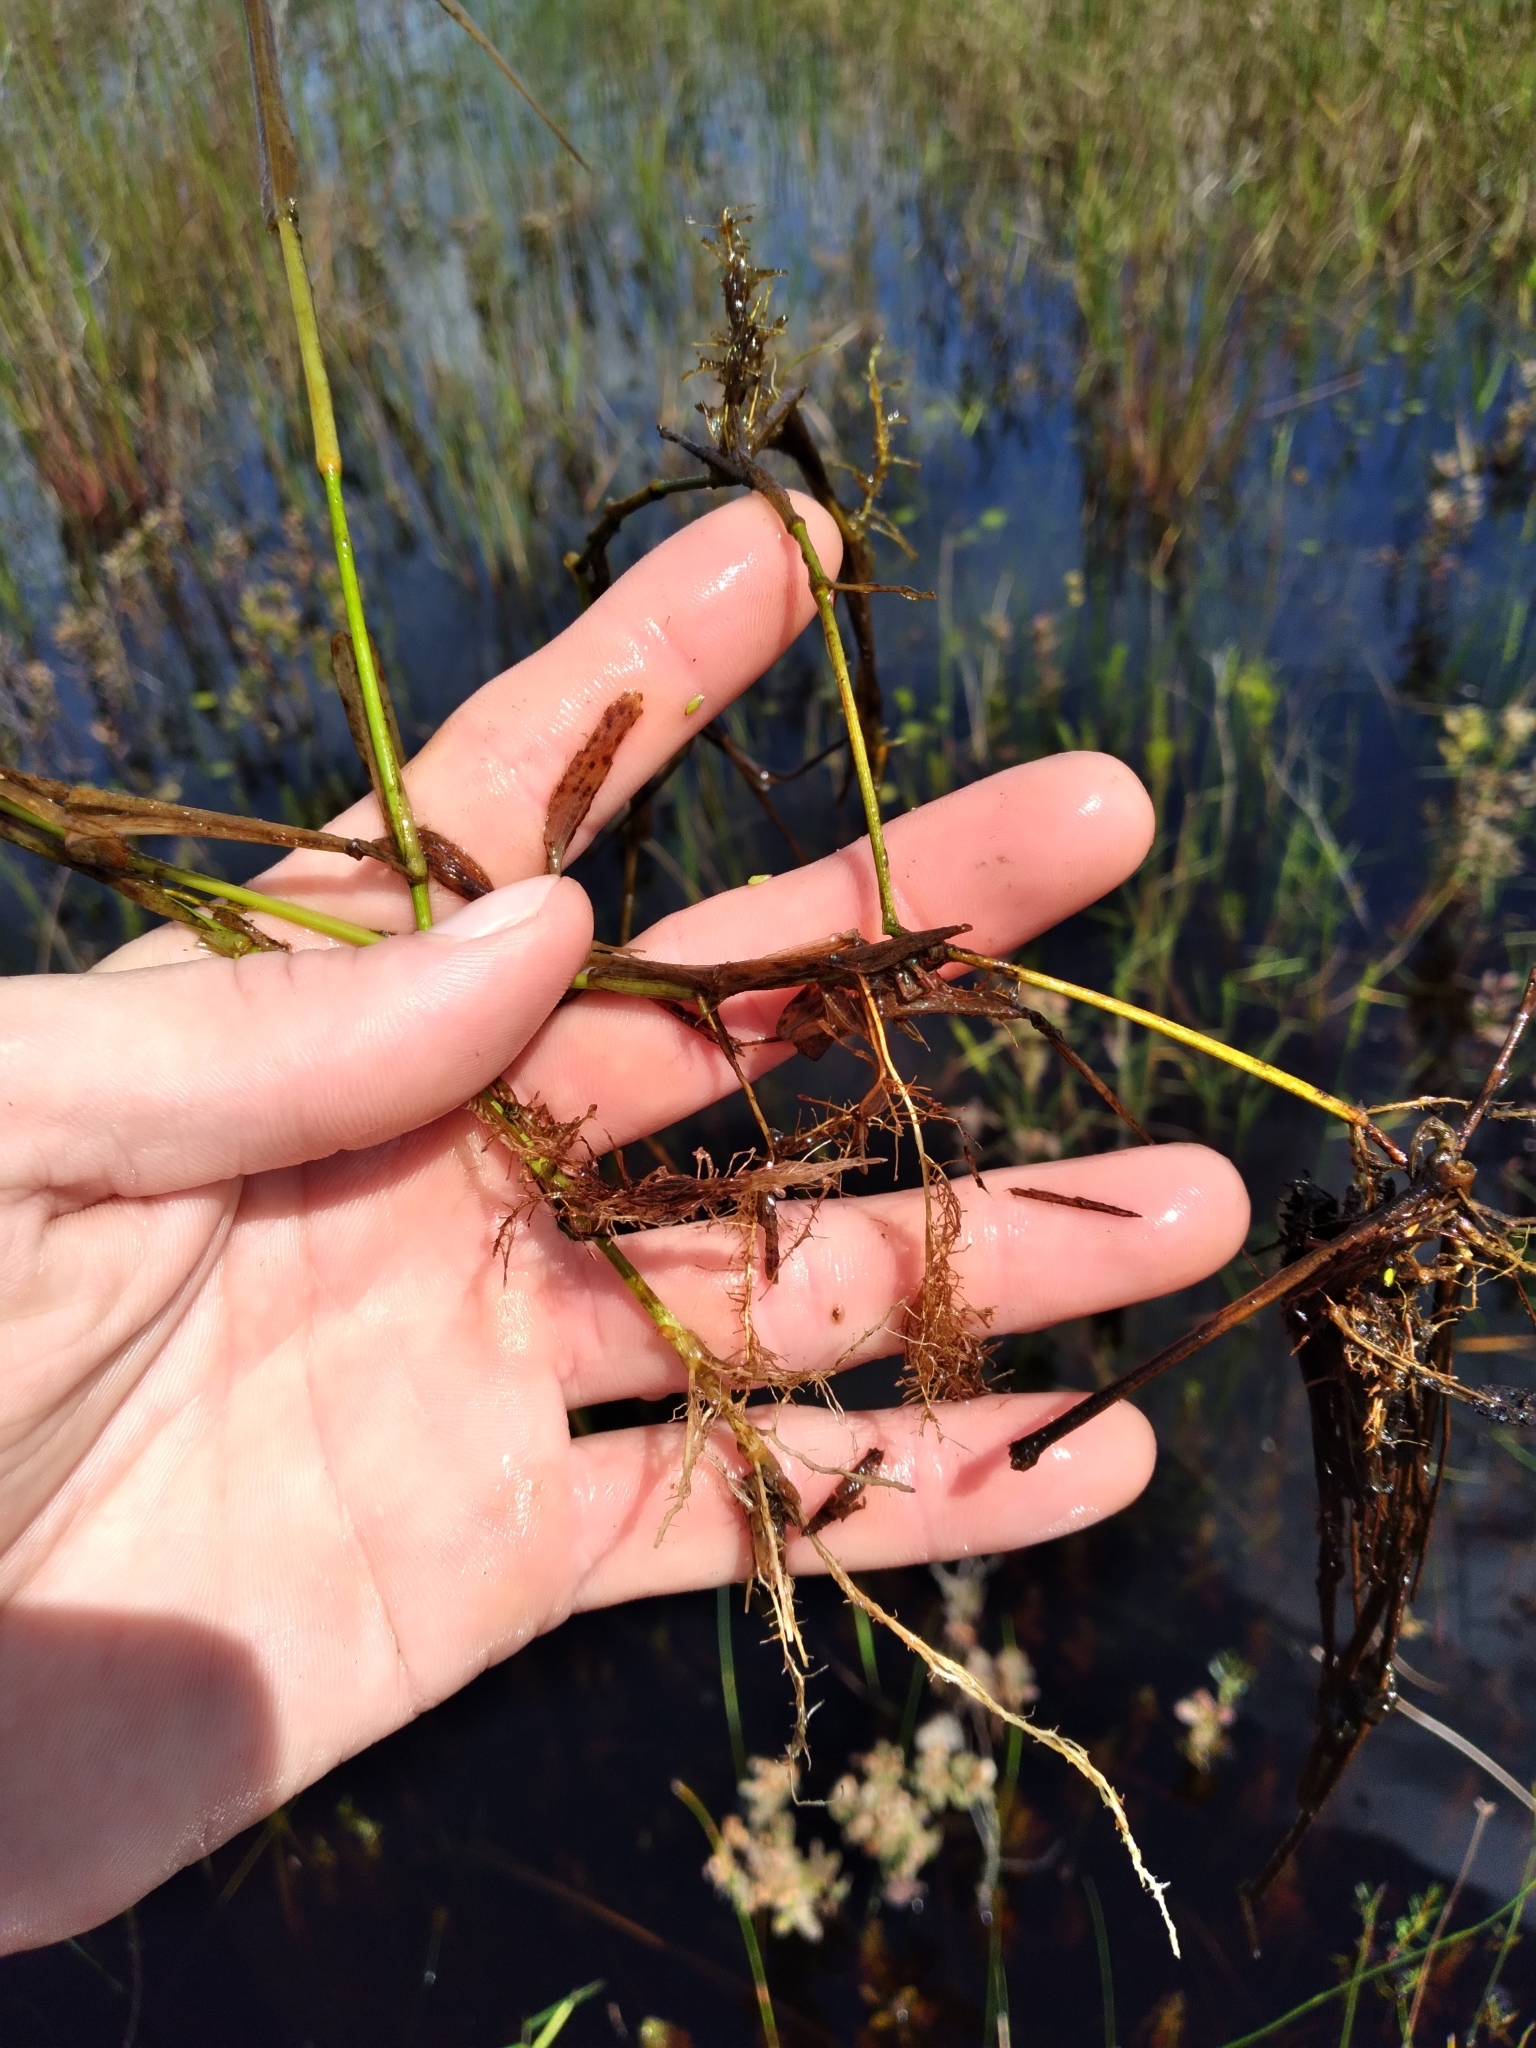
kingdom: Plantae
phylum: Tracheophyta
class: Liliopsida
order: Poales
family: Poaceae
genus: Sacciolepis
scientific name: Sacciolepis striata
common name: American cupscale
